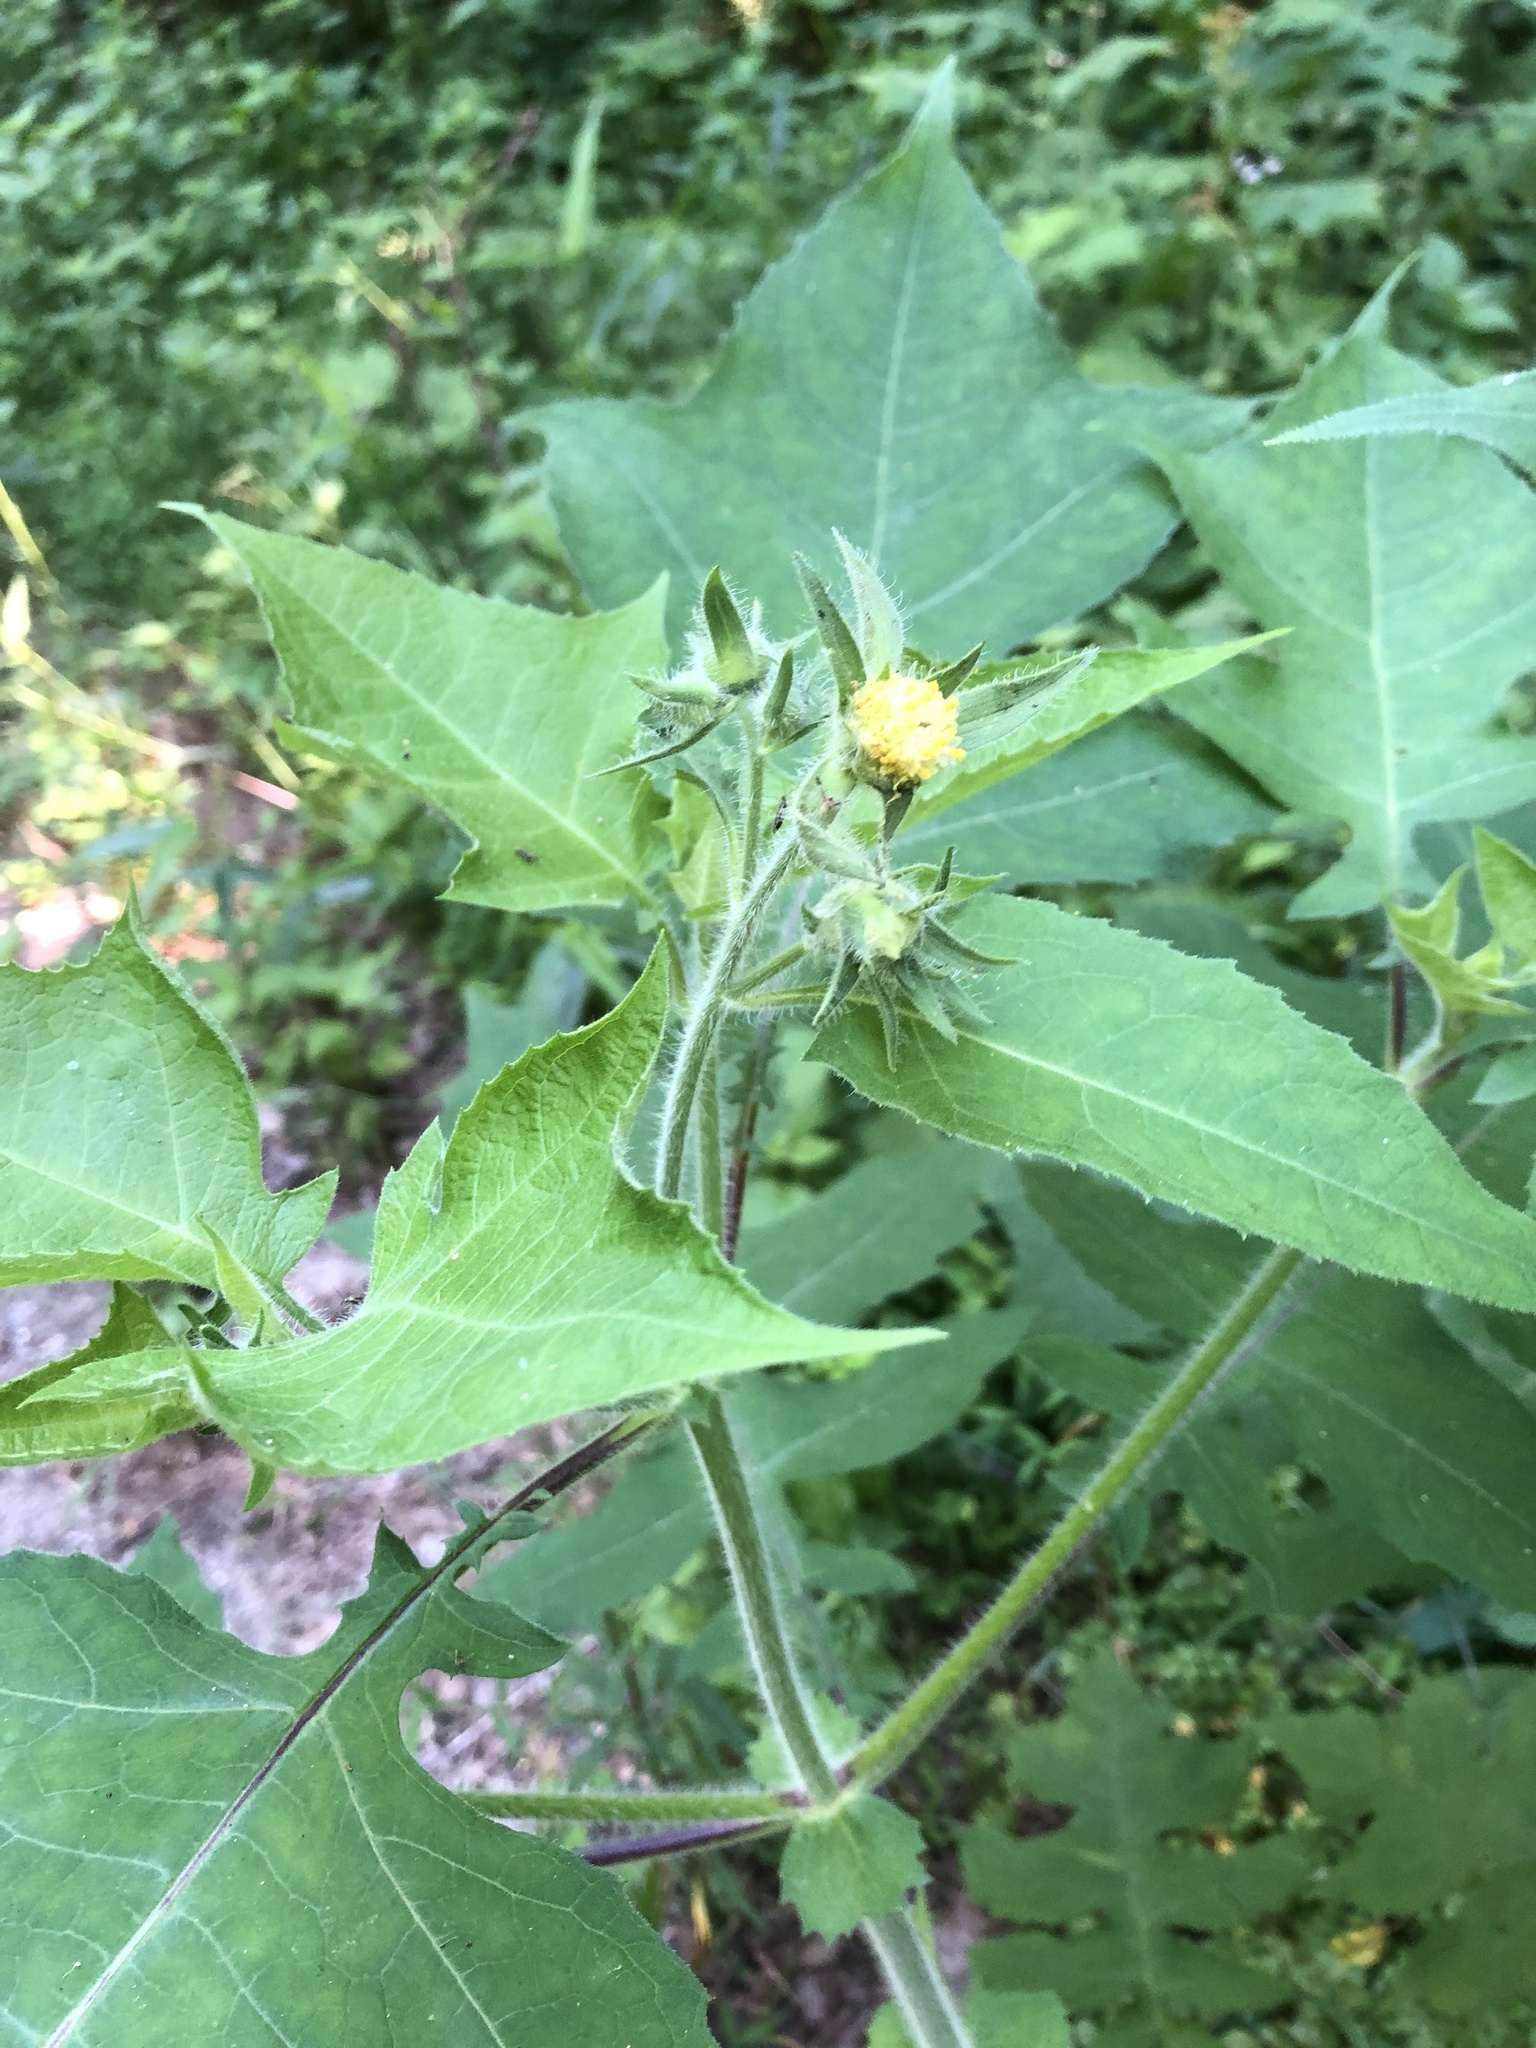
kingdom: Plantae
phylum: Tracheophyta
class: Magnoliopsida
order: Asterales
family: Asteraceae
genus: Polymnia
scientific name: Polymnia canadensis
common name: Pale-flowered leafcup
